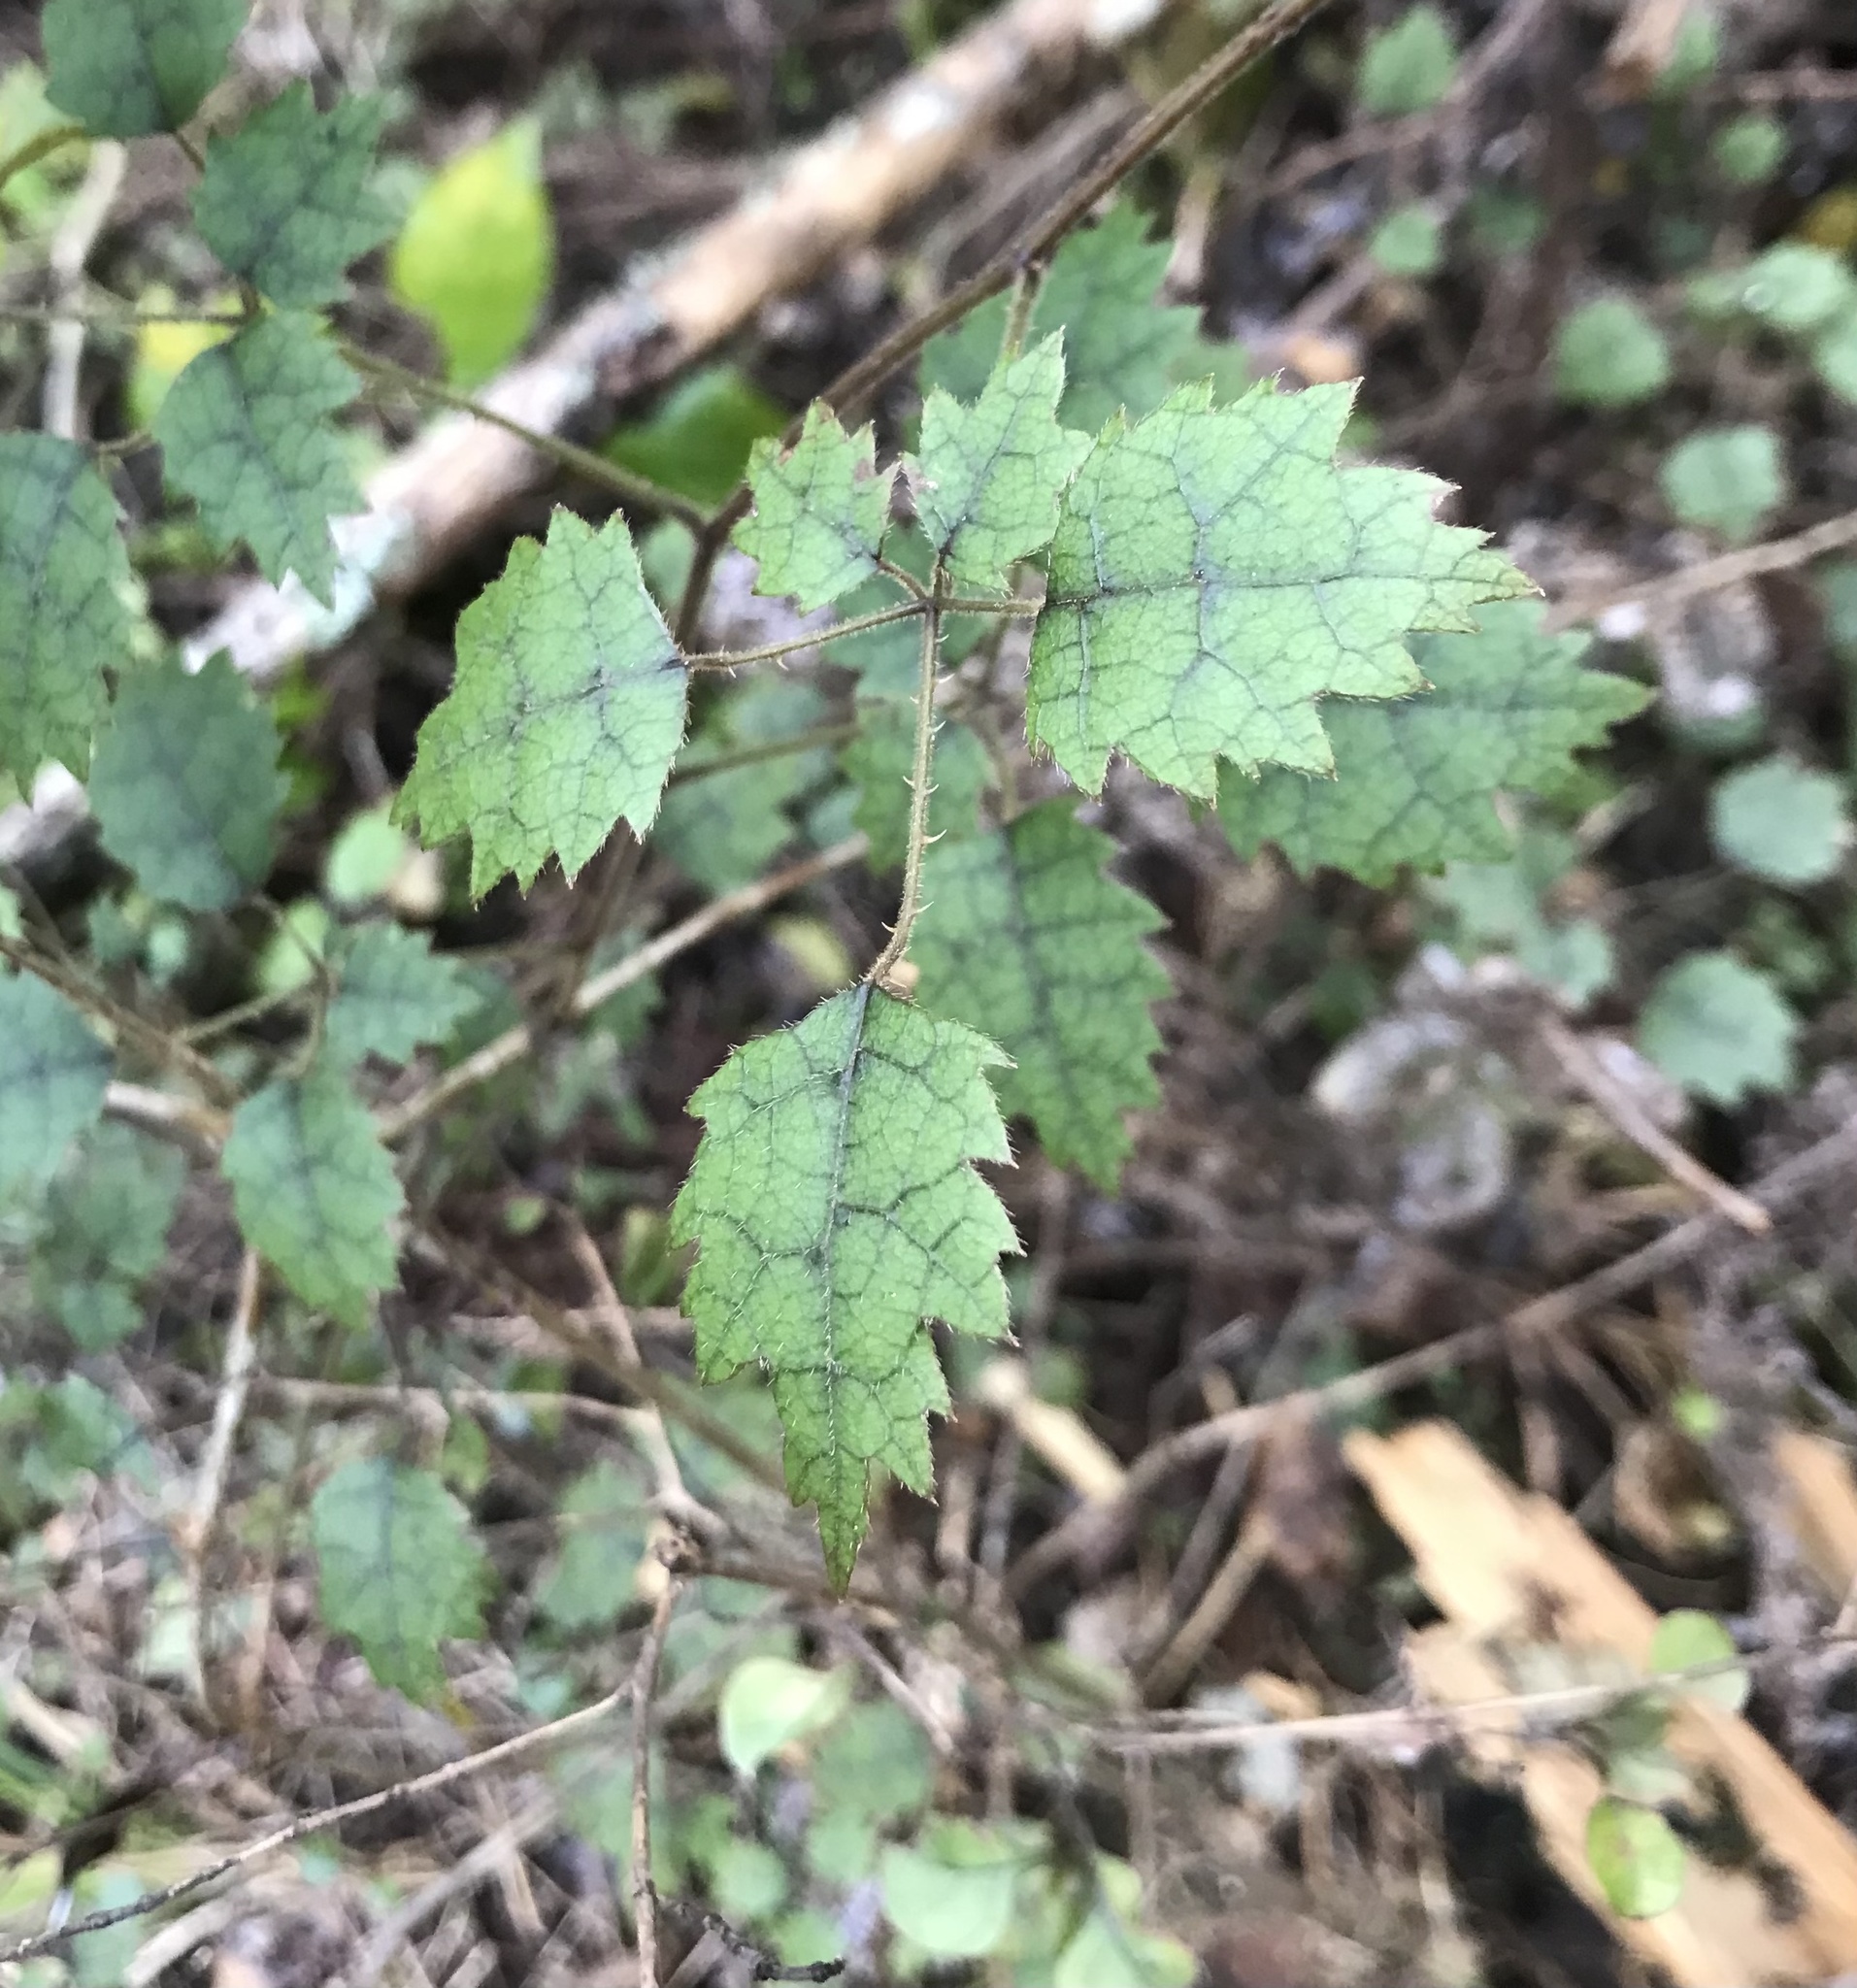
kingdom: Plantae
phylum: Tracheophyta
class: Magnoliopsida
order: Rosales
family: Rosaceae
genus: Rubus
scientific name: Rubus australis
